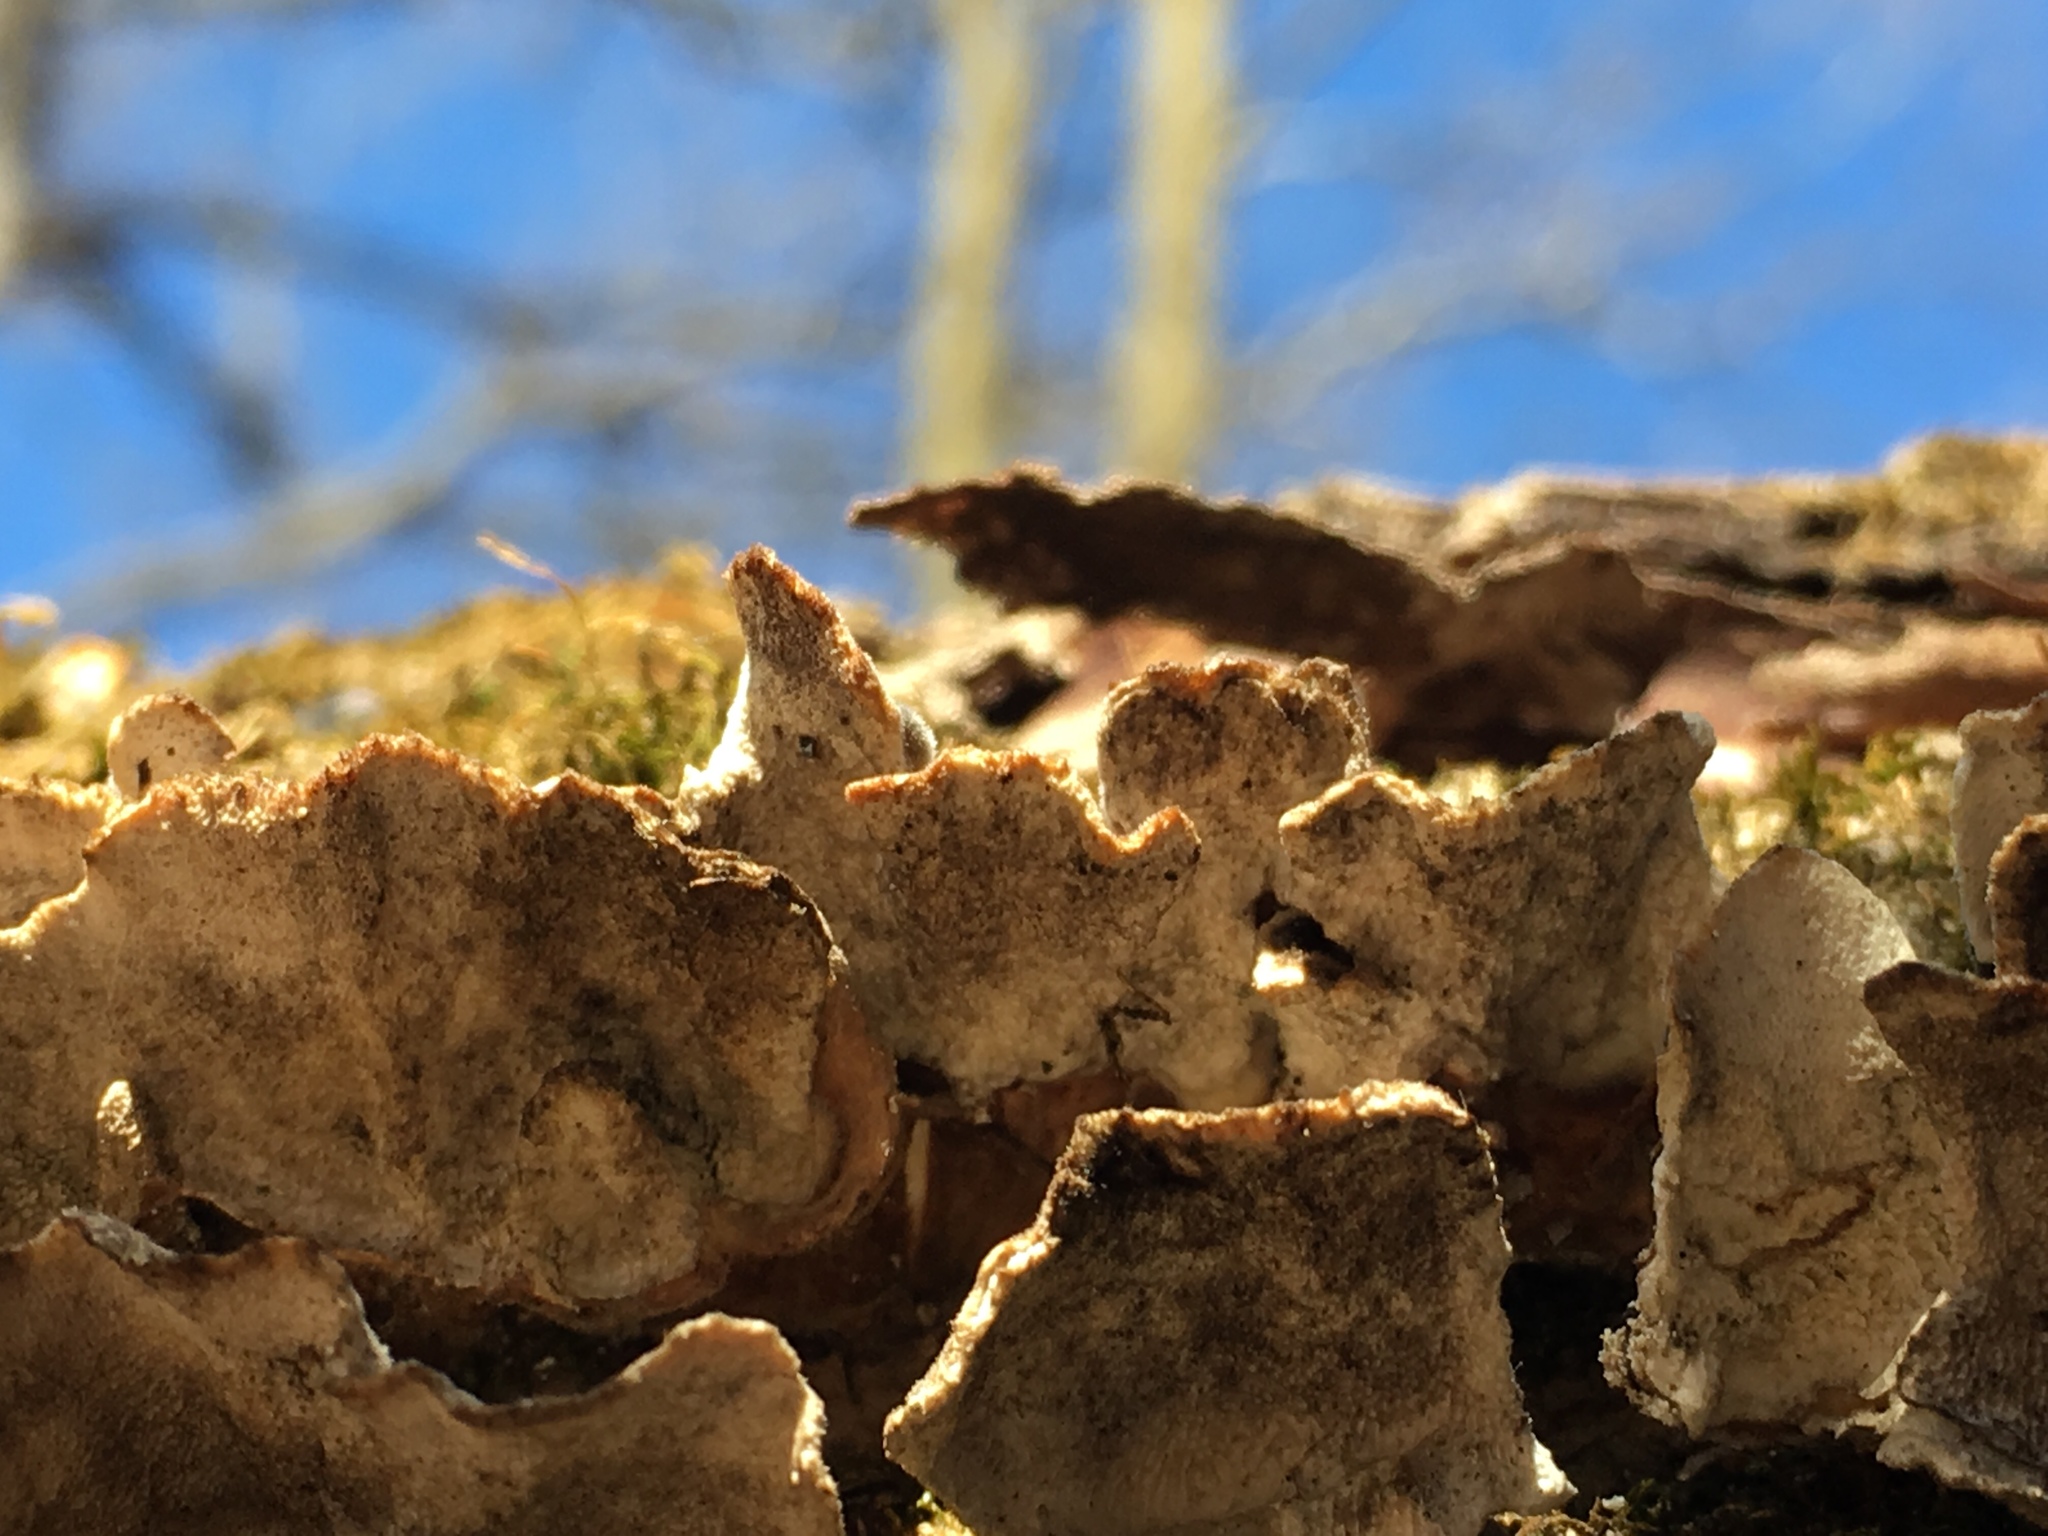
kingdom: Fungi
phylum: Basidiomycota
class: Agaricomycetes
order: Polyporales
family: Polyporaceae
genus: Trametes
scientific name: Trametes versicolor
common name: Turkeytail
